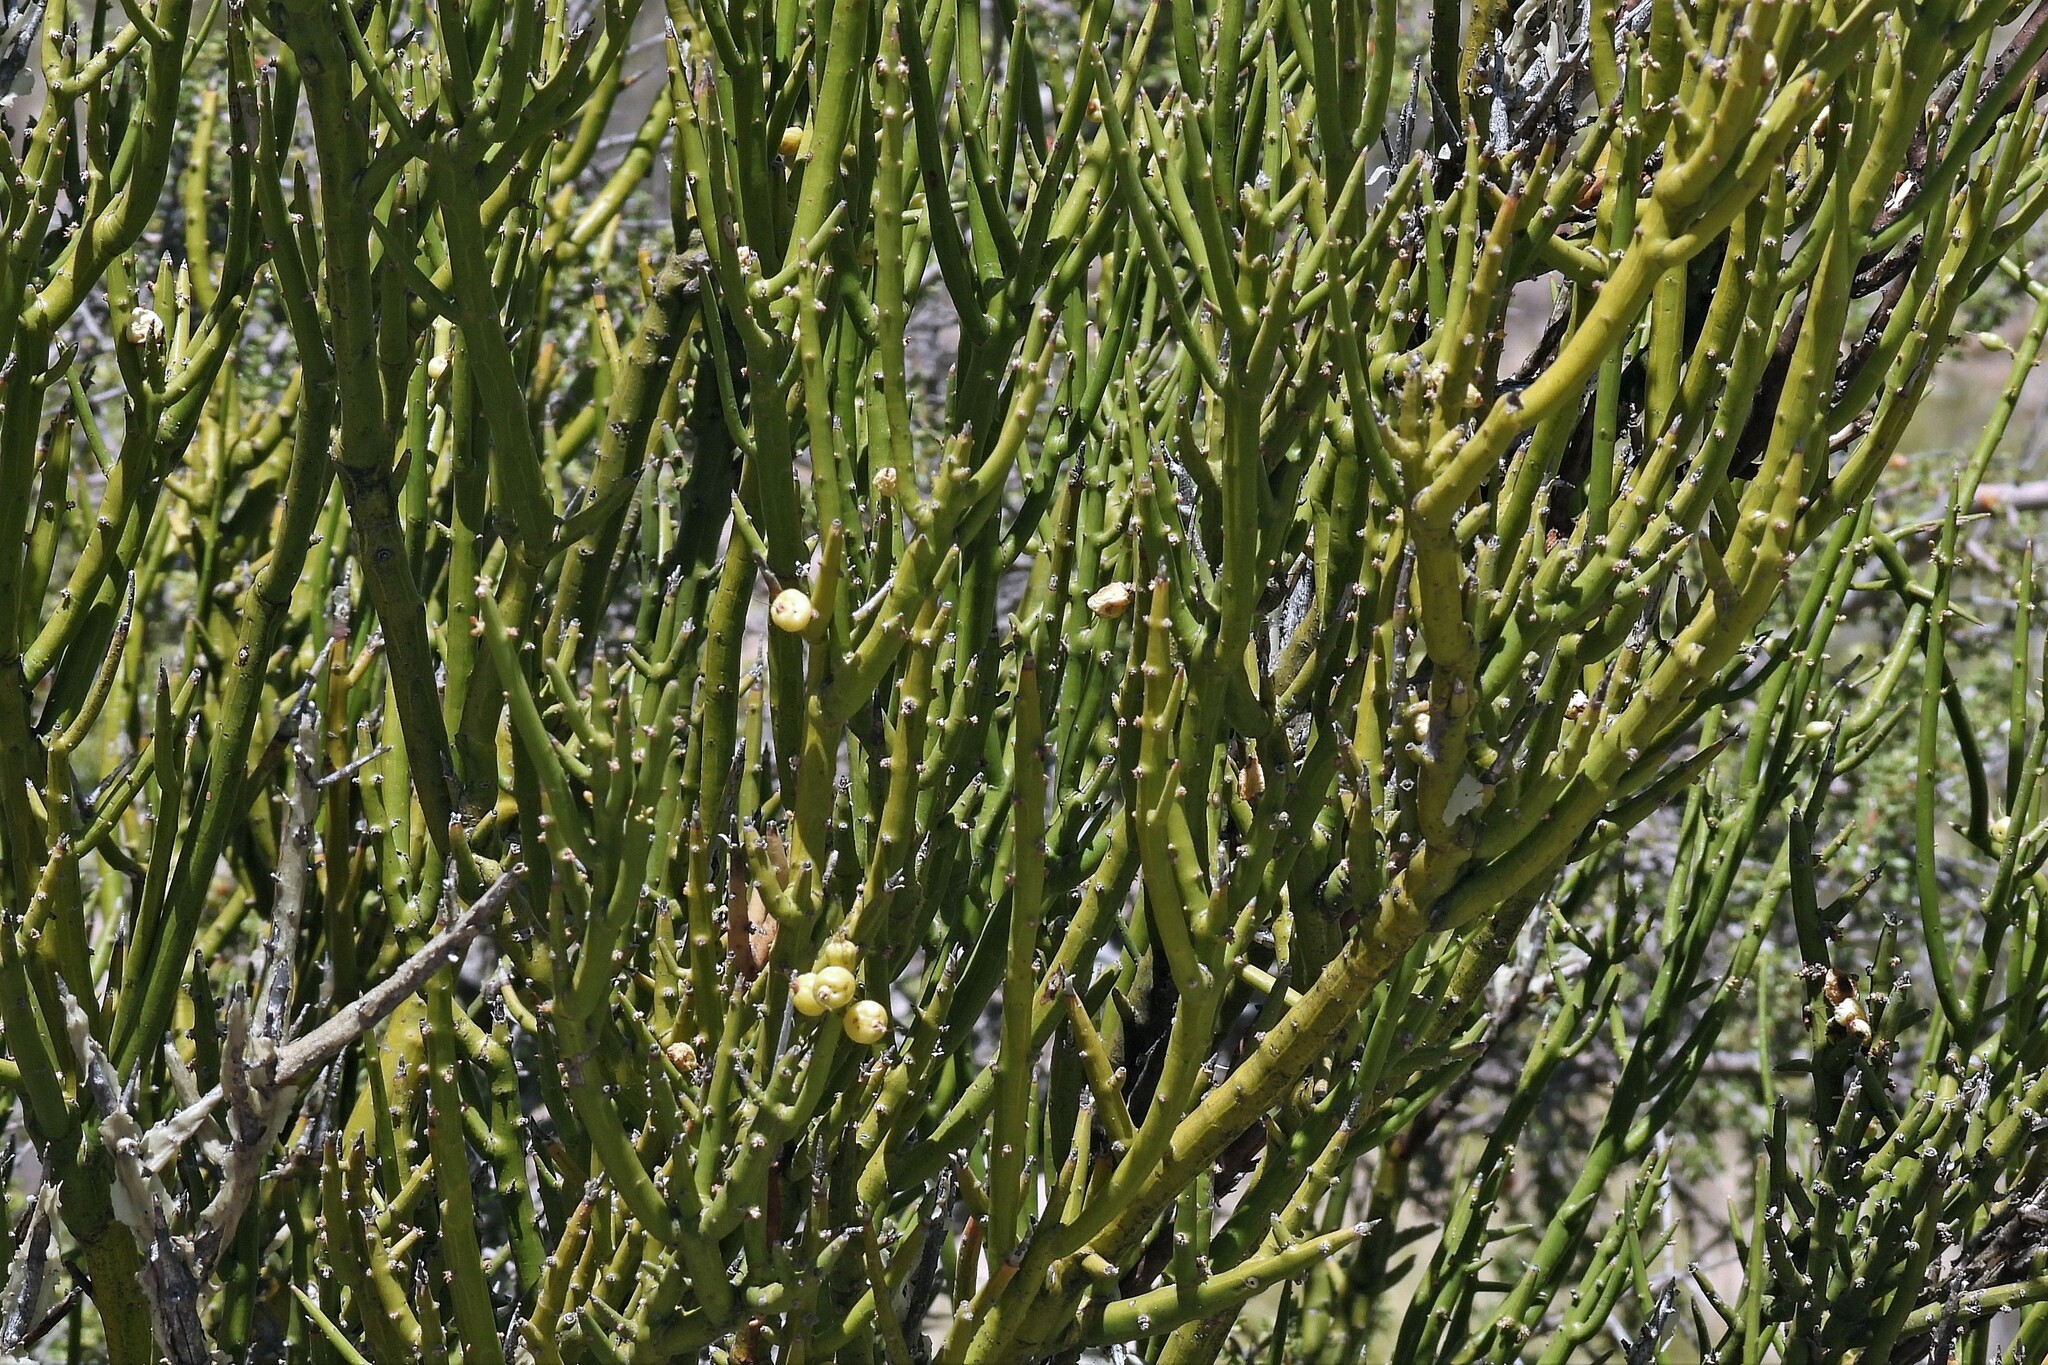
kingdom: Plantae
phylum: Tracheophyta
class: Magnoliopsida
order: Lamiales
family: Plantaginaceae
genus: Monttea
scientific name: Monttea aphylla
